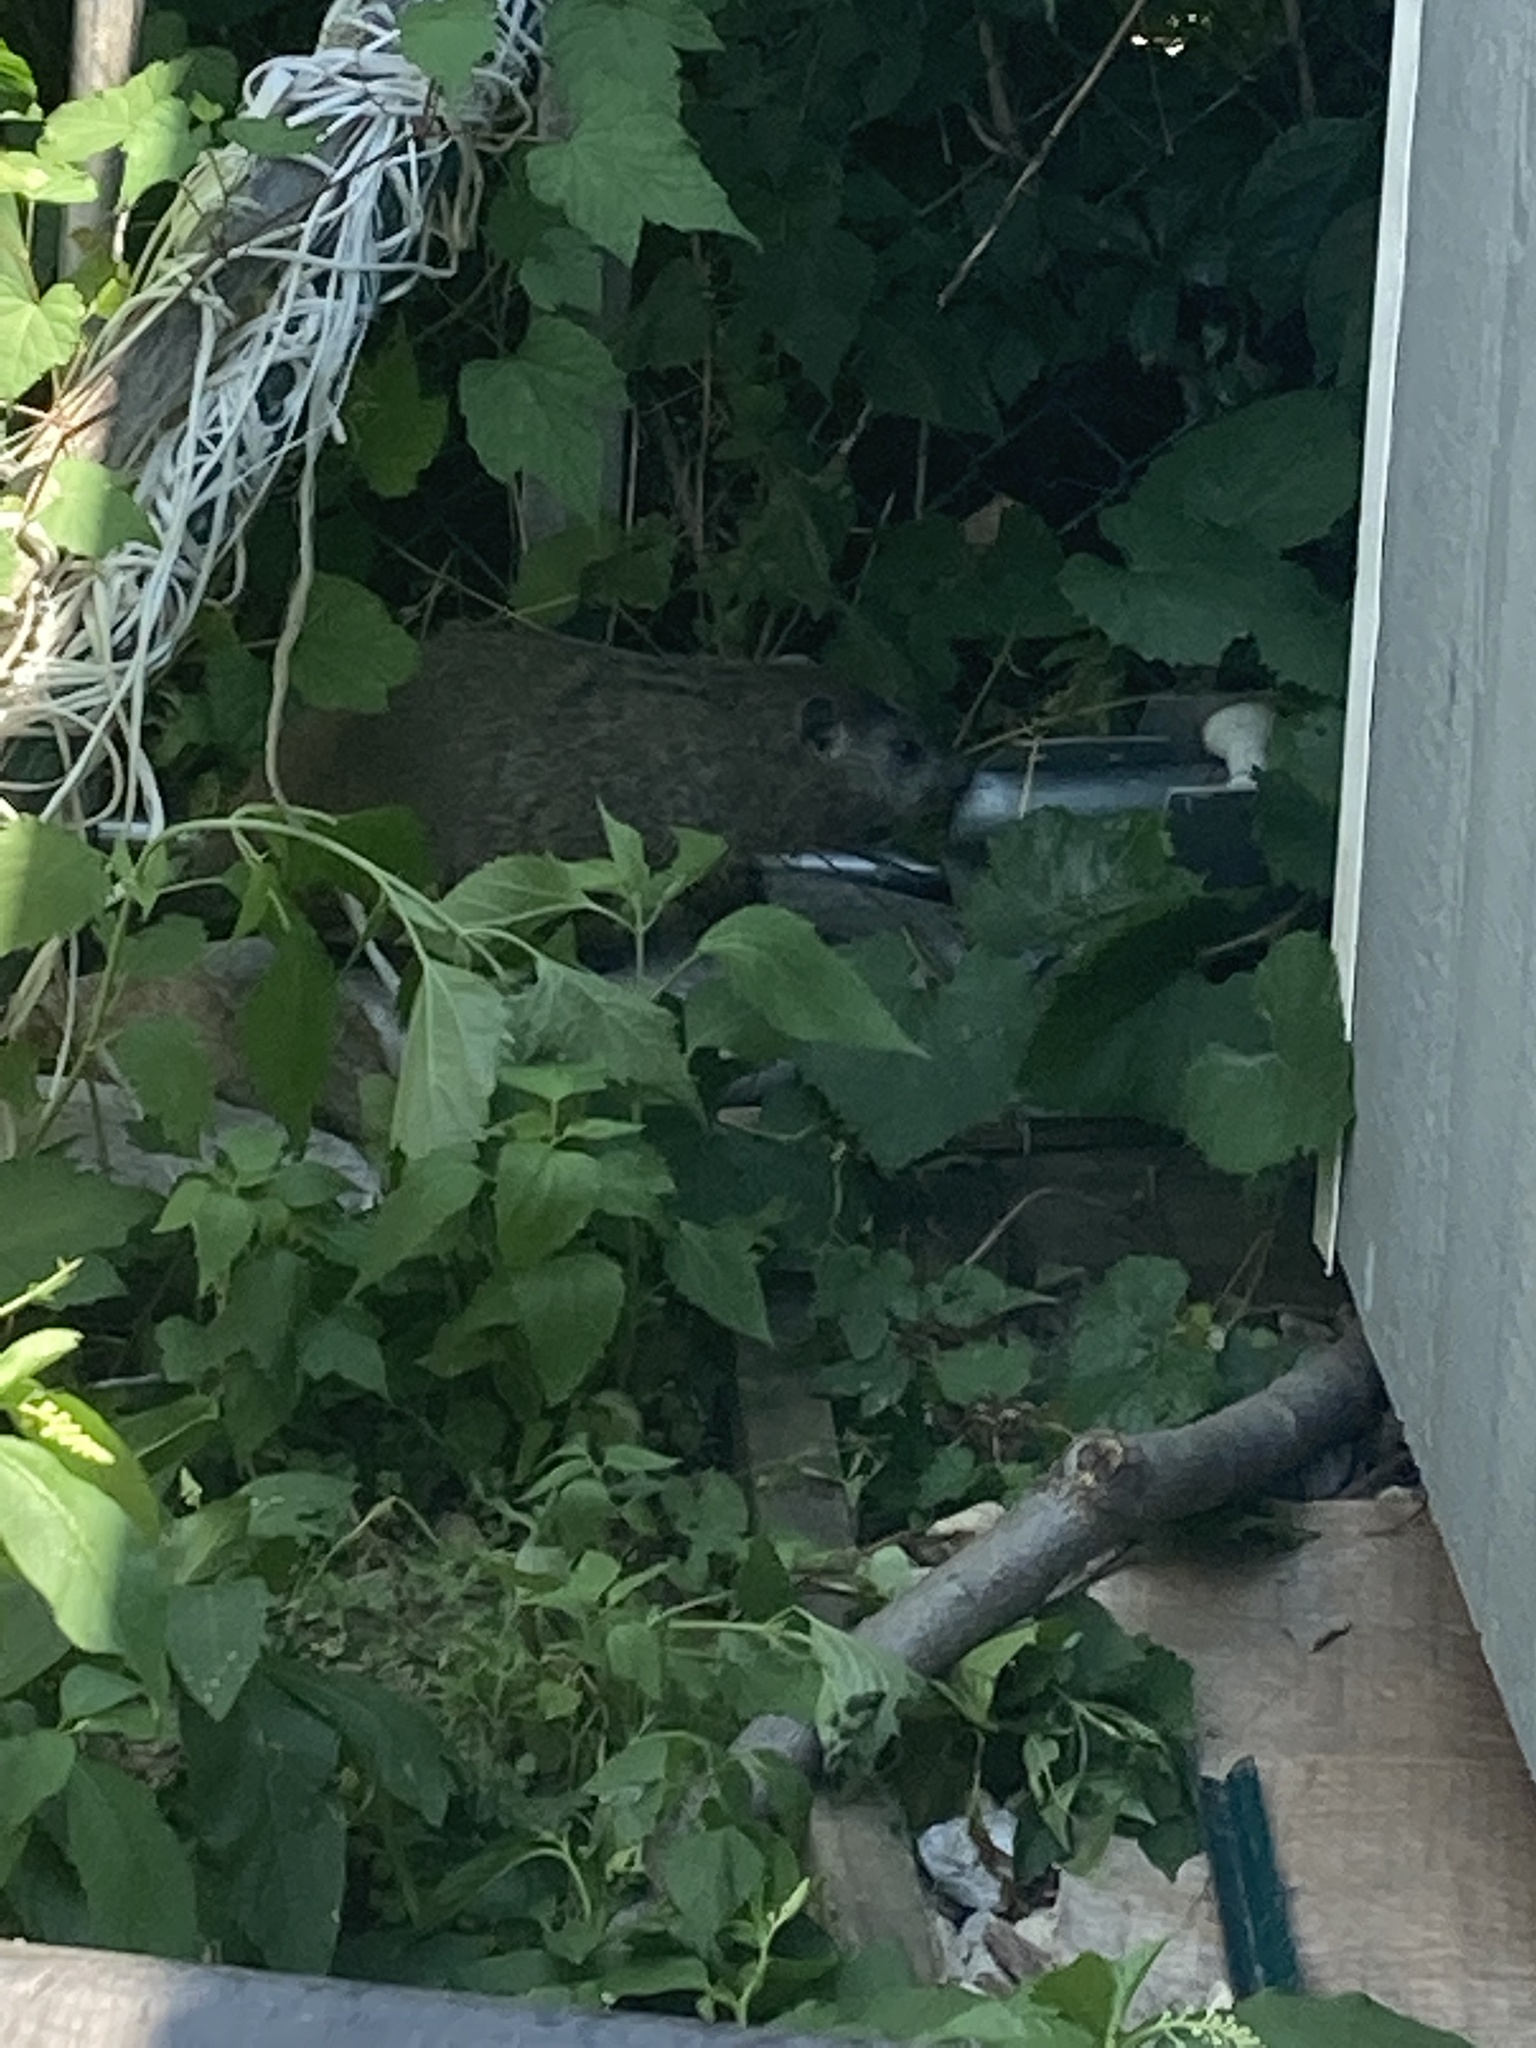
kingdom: Animalia
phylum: Chordata
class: Mammalia
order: Rodentia
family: Sciuridae
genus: Marmota
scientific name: Marmota monax
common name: Groundhog
